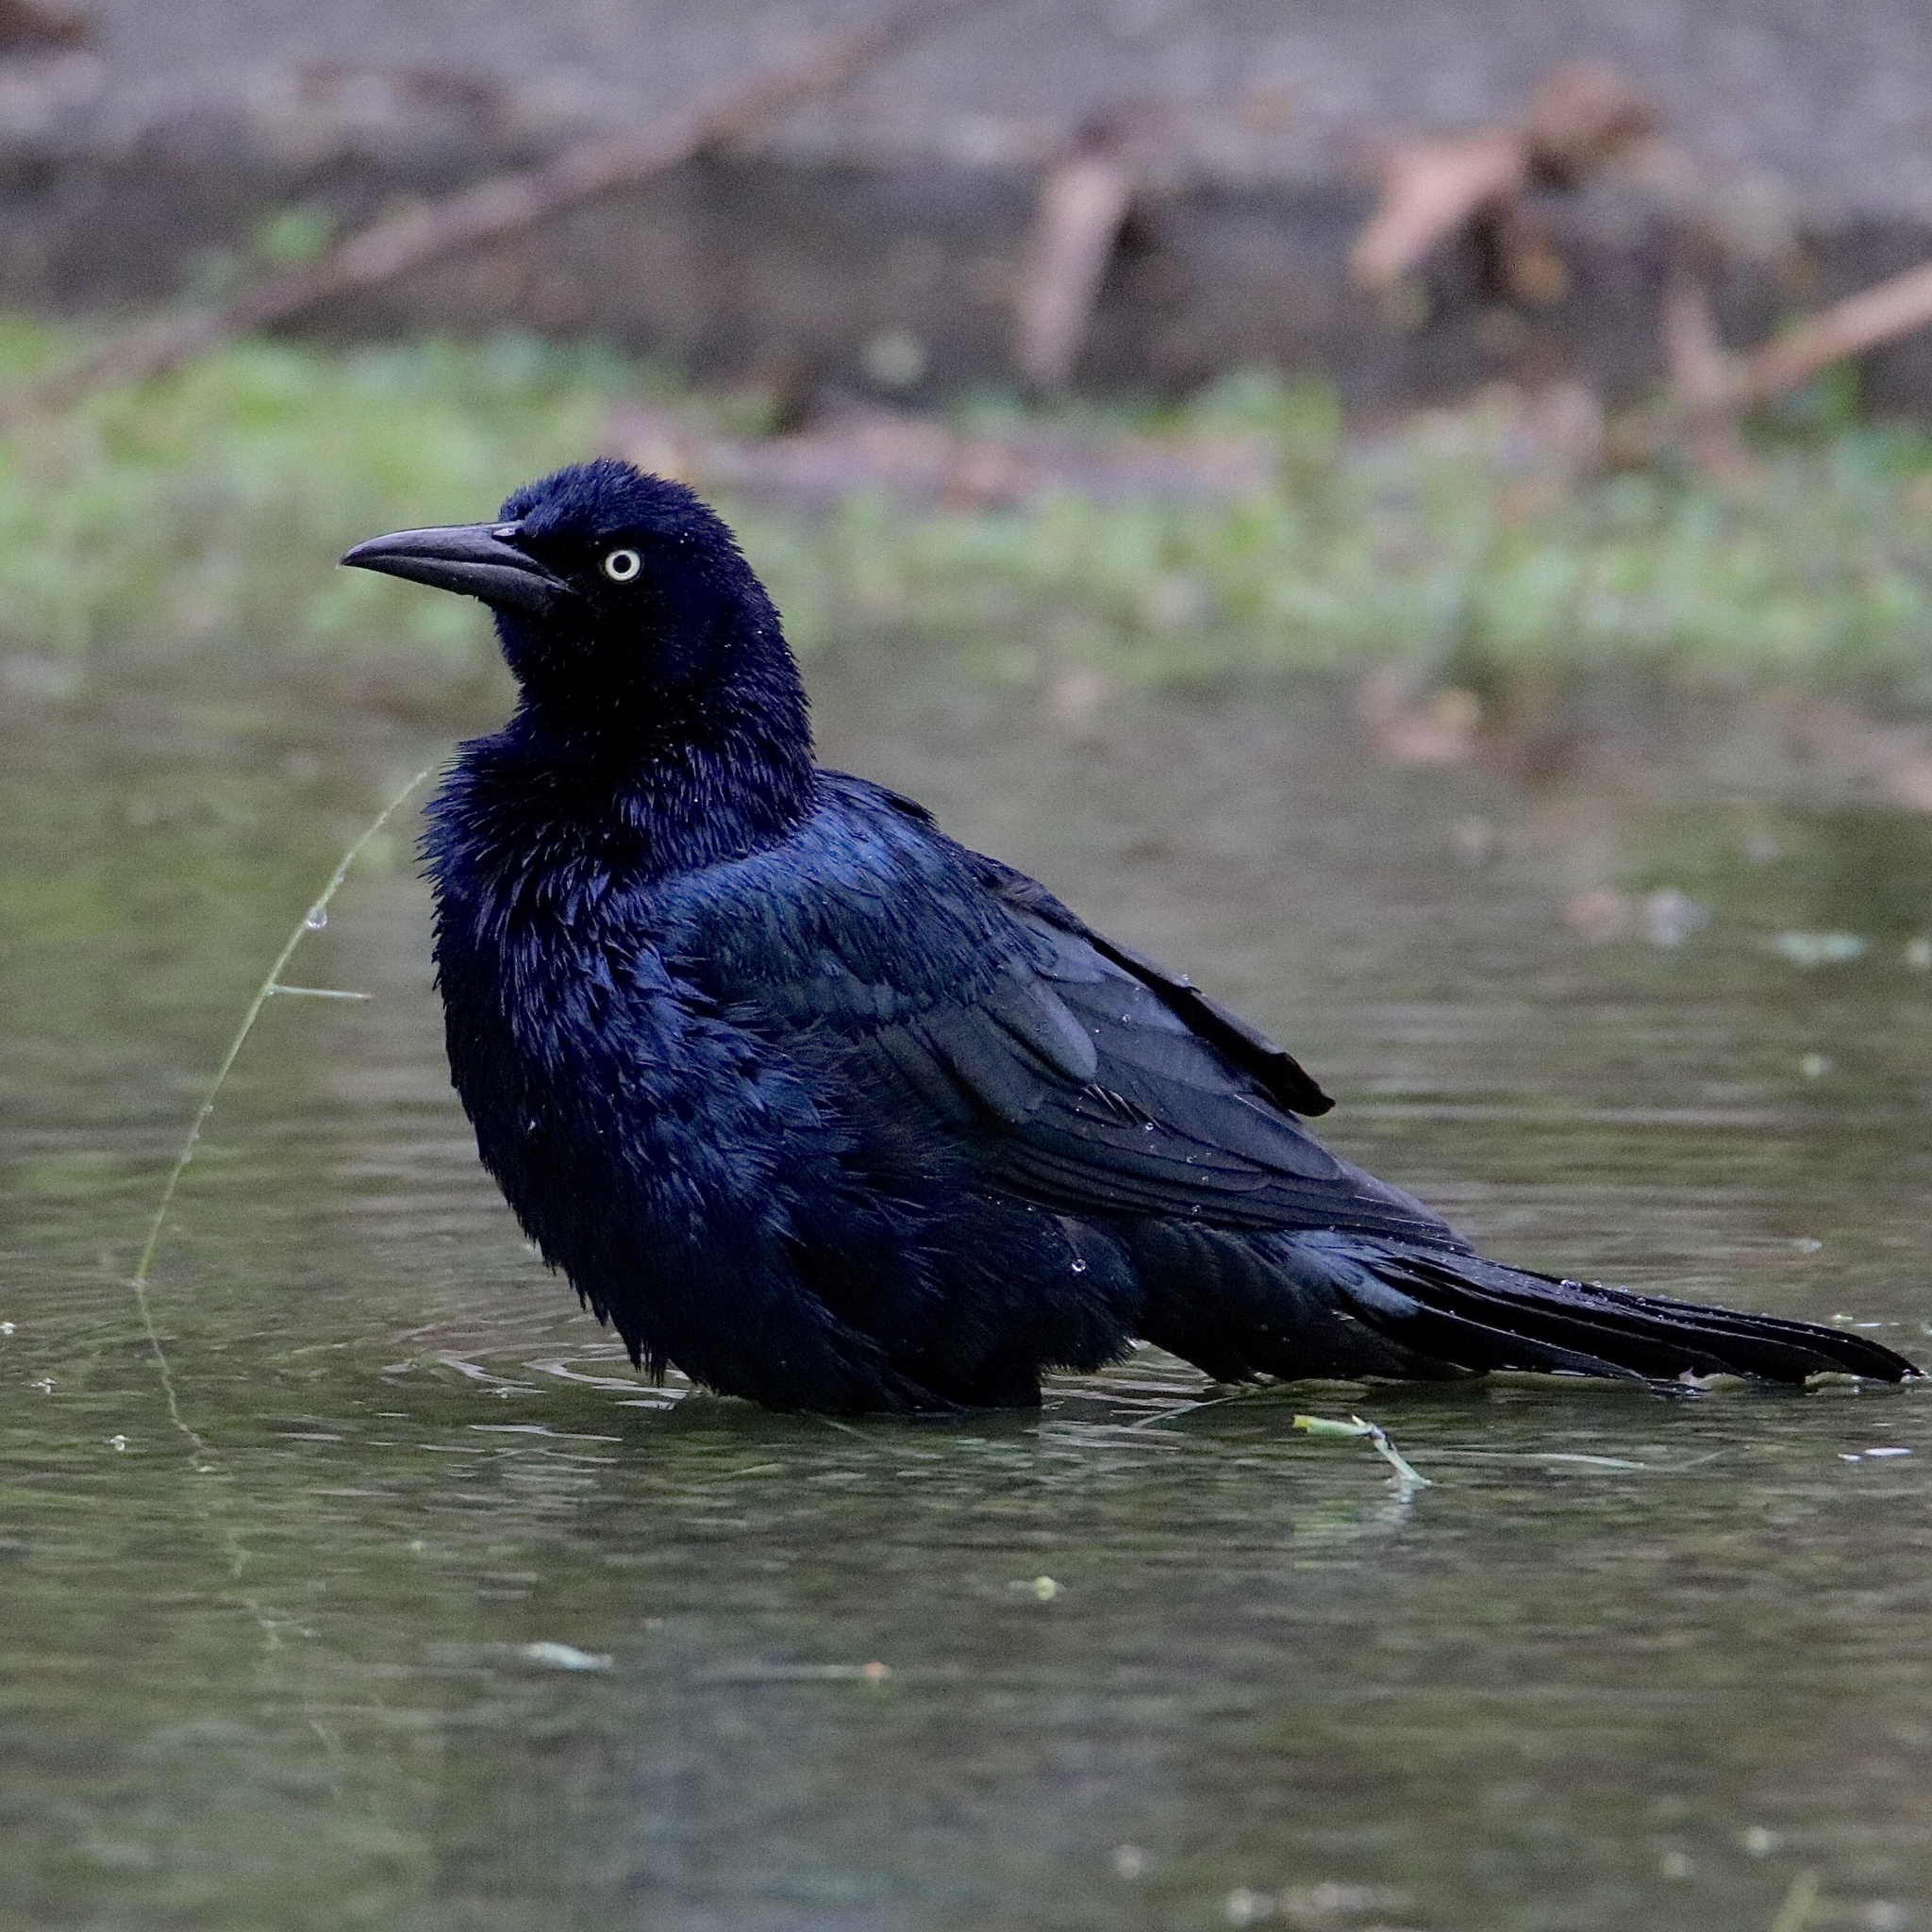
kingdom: Animalia
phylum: Chordata
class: Aves
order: Passeriformes
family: Icteridae
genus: Quiscalus
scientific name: Quiscalus mexicanus
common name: Great-tailed grackle
